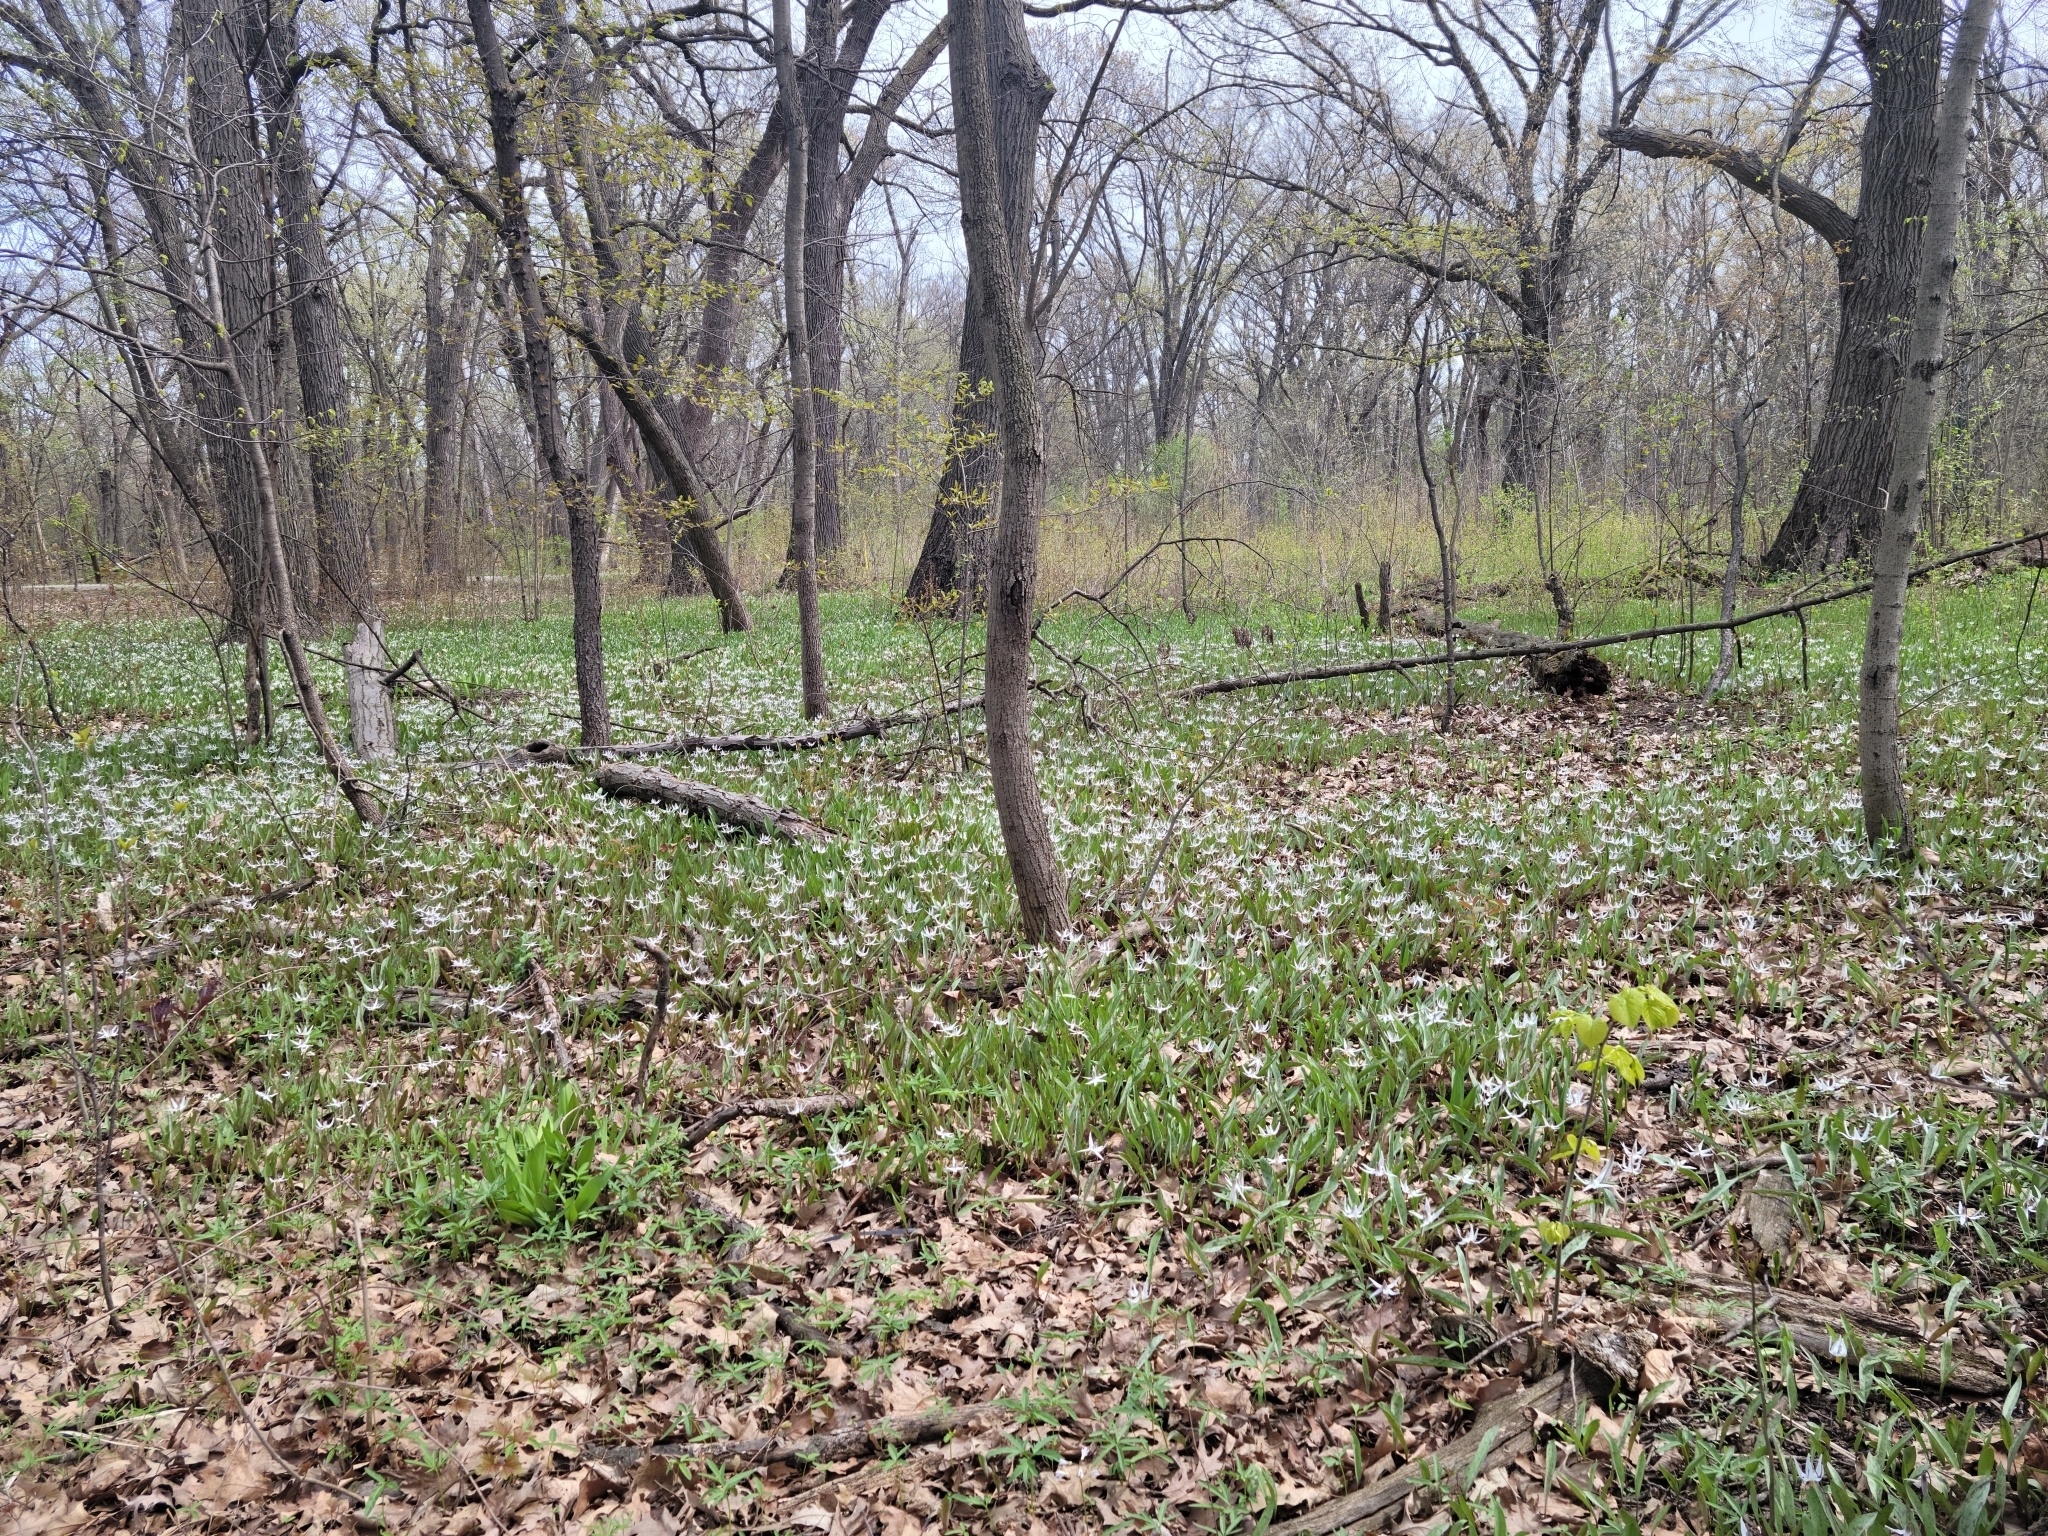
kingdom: Plantae
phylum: Tracheophyta
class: Liliopsida
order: Liliales
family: Liliaceae
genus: Erythronium
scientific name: Erythronium albidum
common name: White trout-lily
